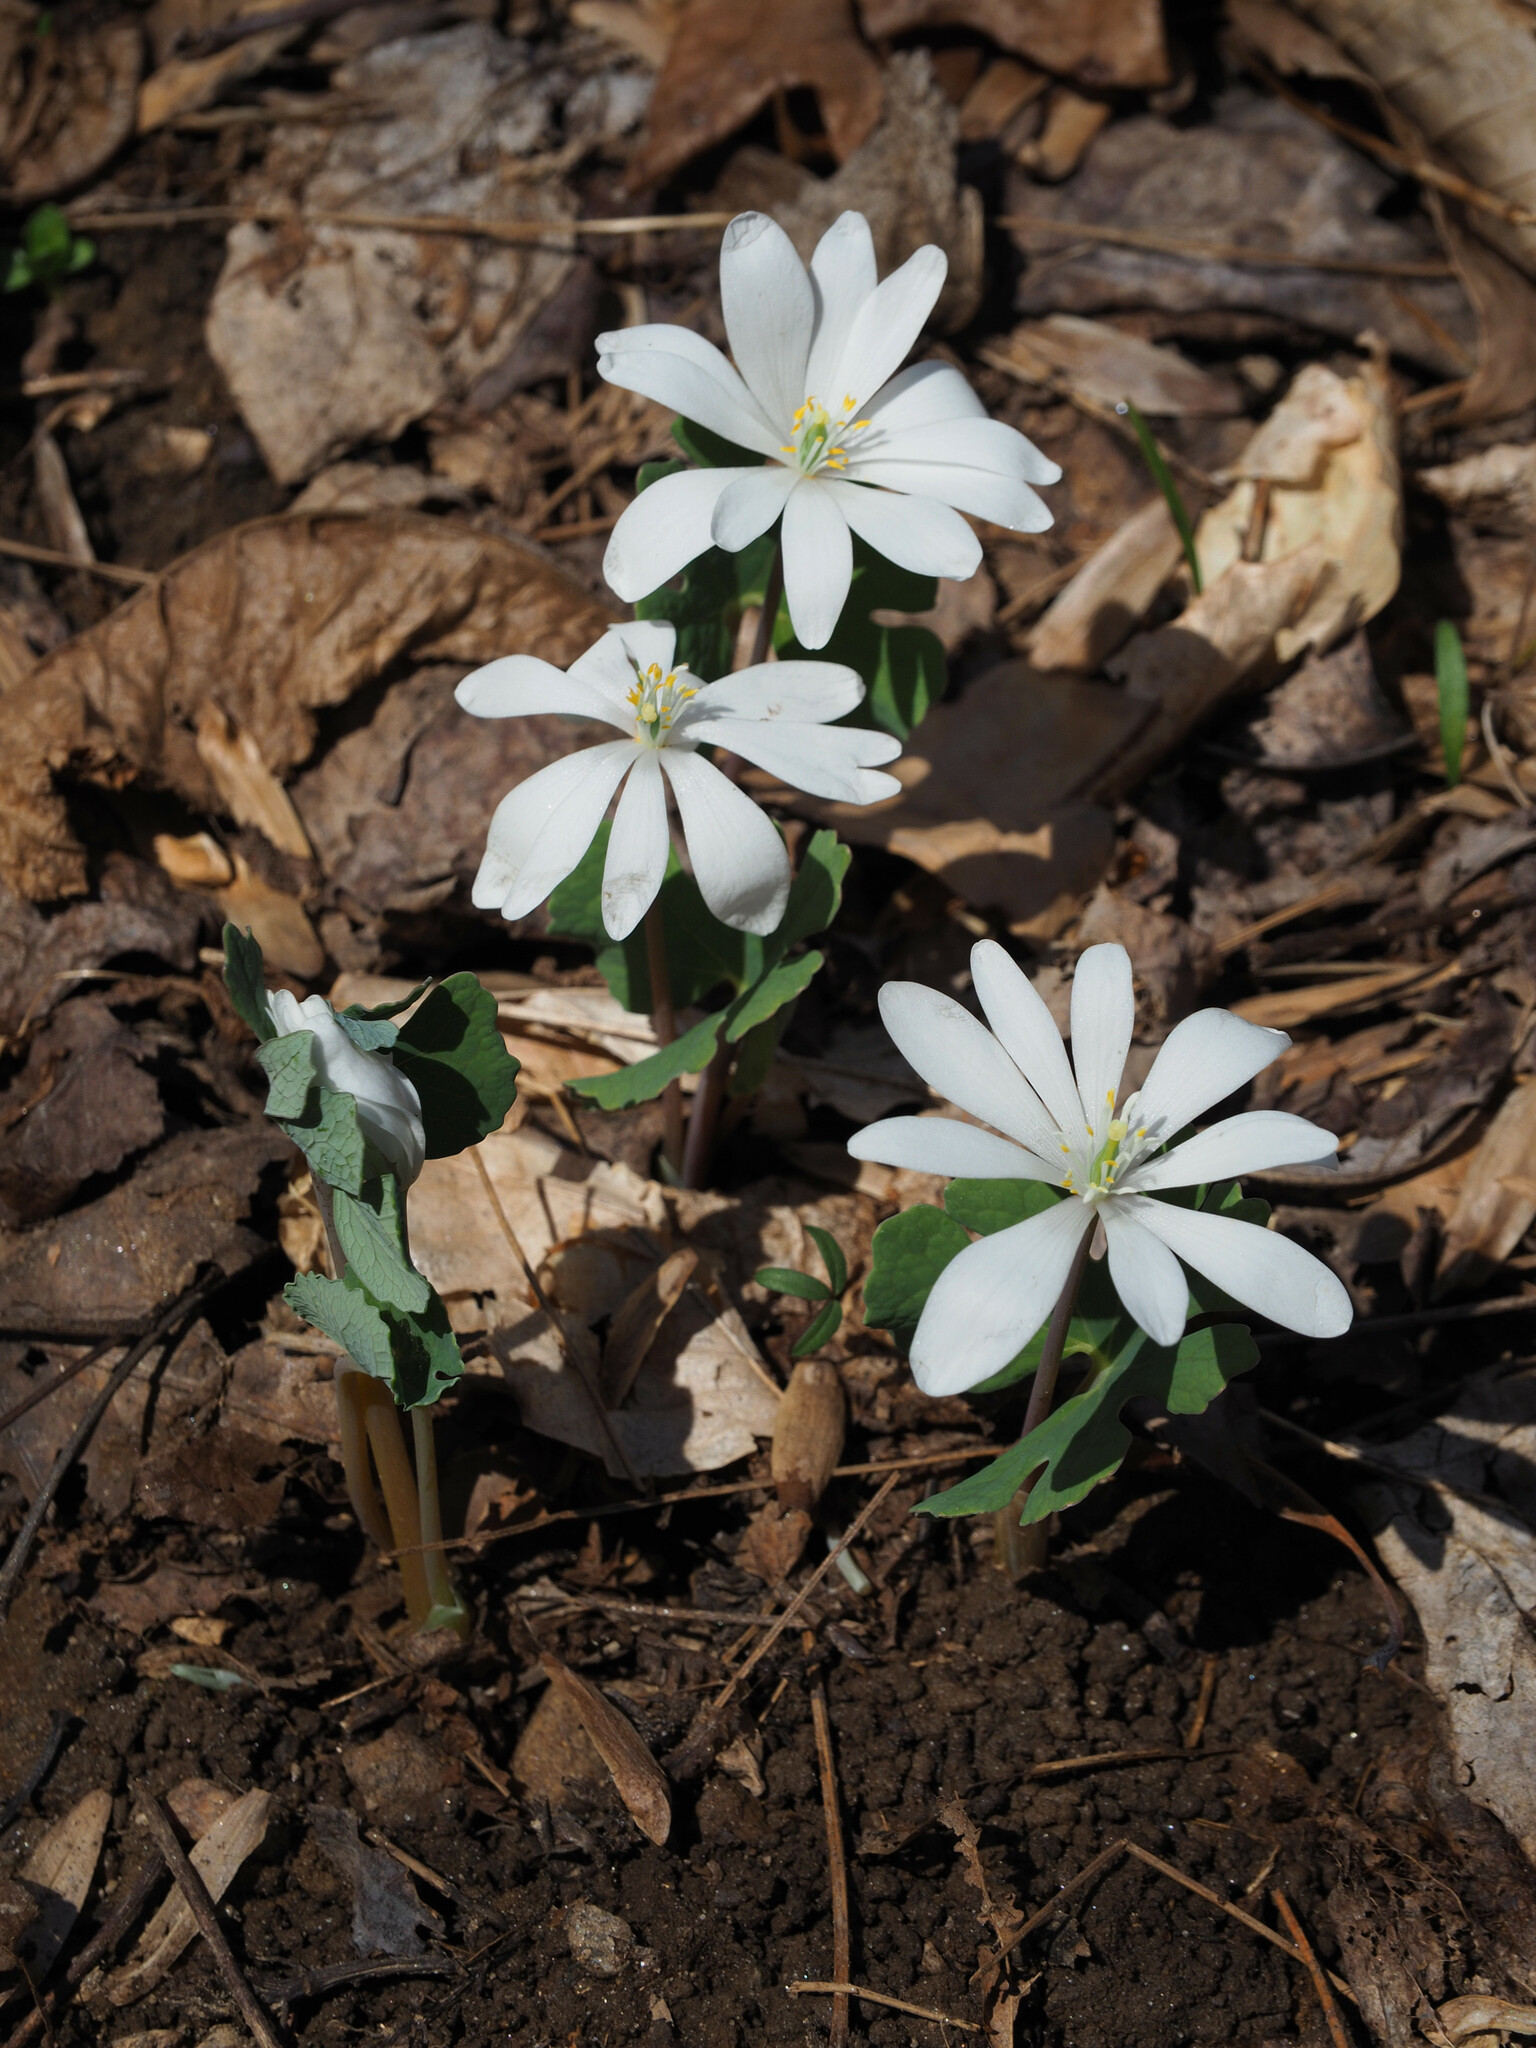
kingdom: Plantae
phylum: Tracheophyta
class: Magnoliopsida
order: Ranunculales
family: Papaveraceae
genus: Sanguinaria
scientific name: Sanguinaria canadensis
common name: Bloodroot
